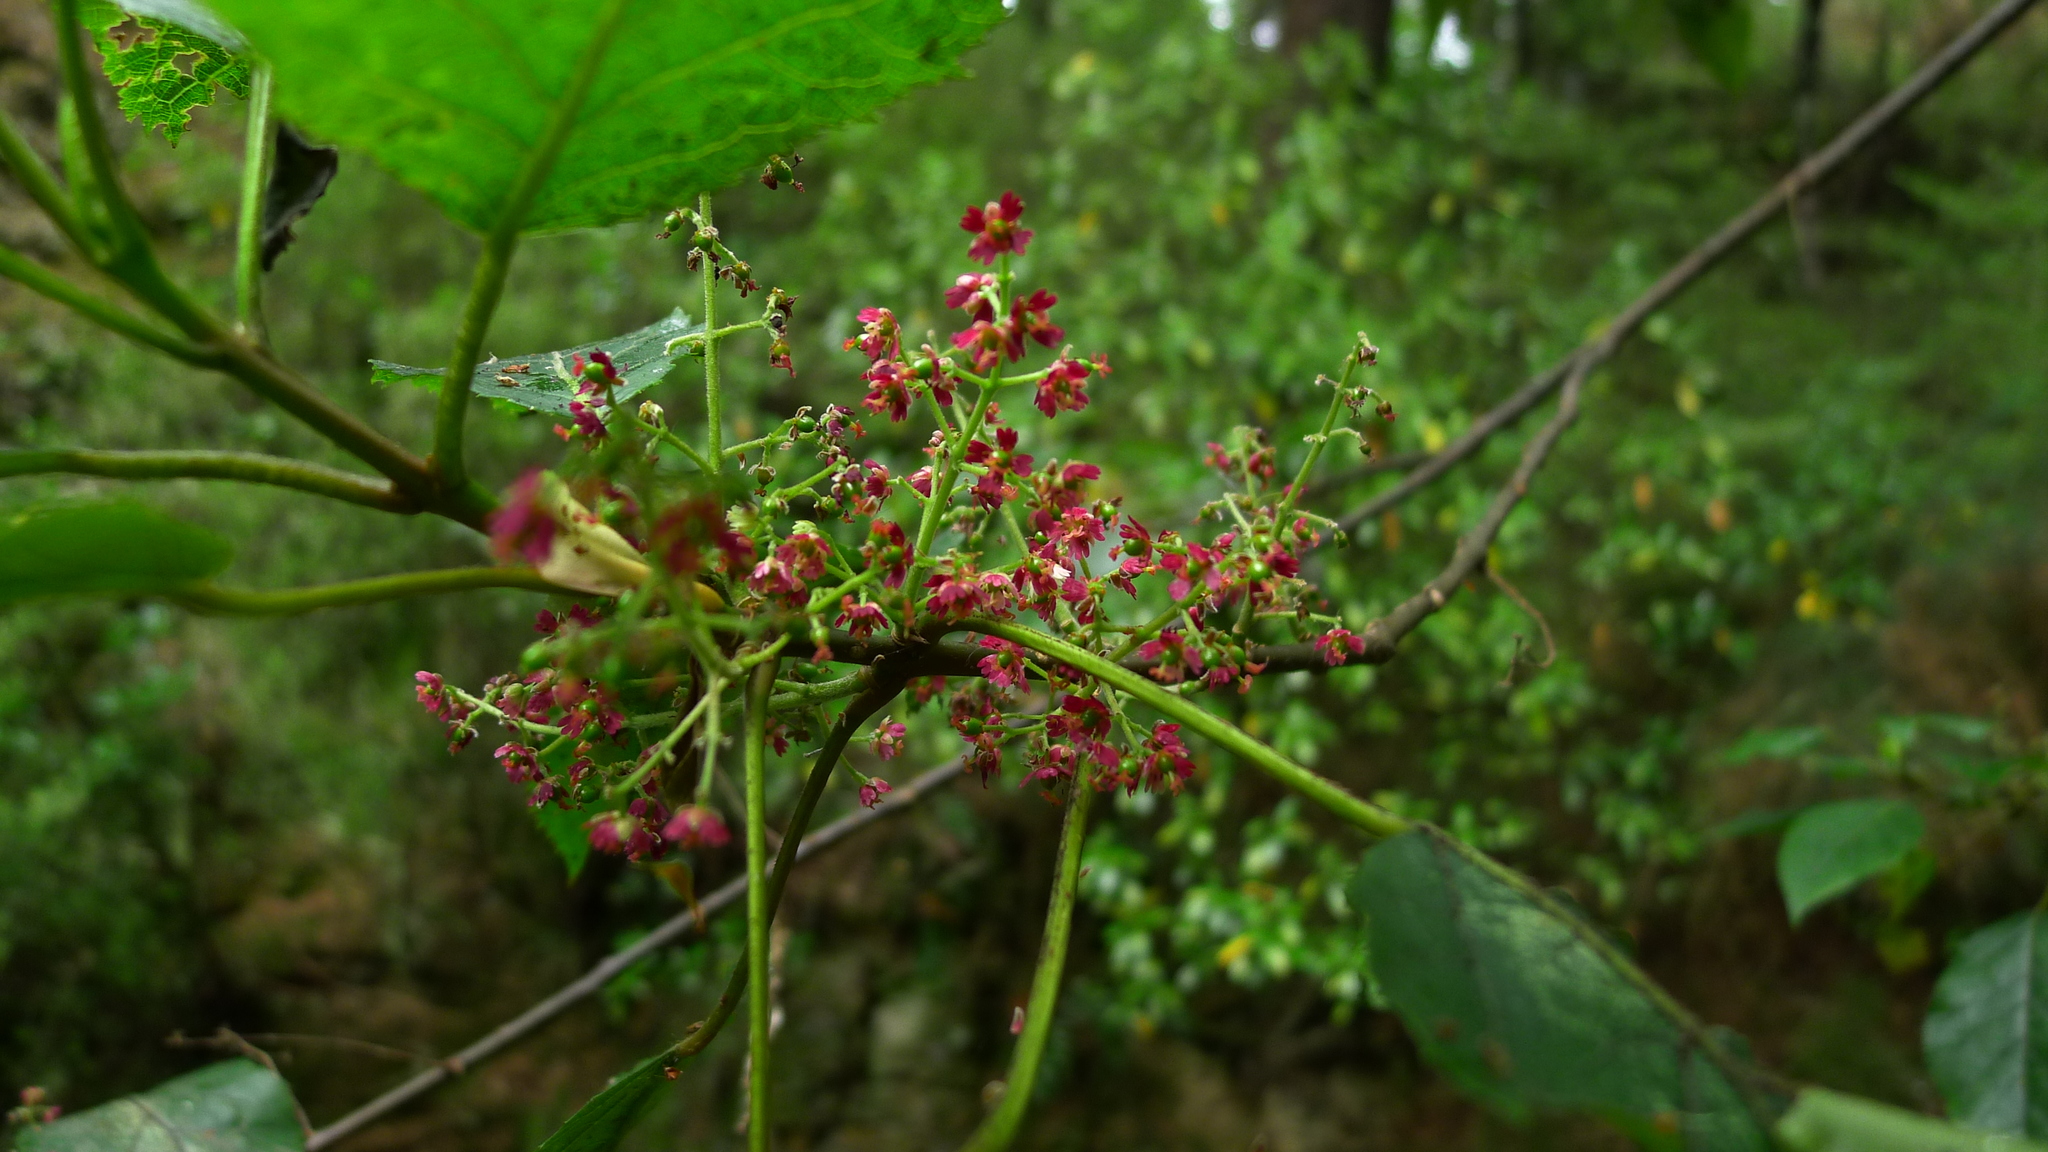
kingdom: Plantae
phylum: Tracheophyta
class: Magnoliopsida
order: Oxalidales
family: Elaeocarpaceae
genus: Aristotelia
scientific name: Aristotelia serrata
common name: New zealand wineberry
